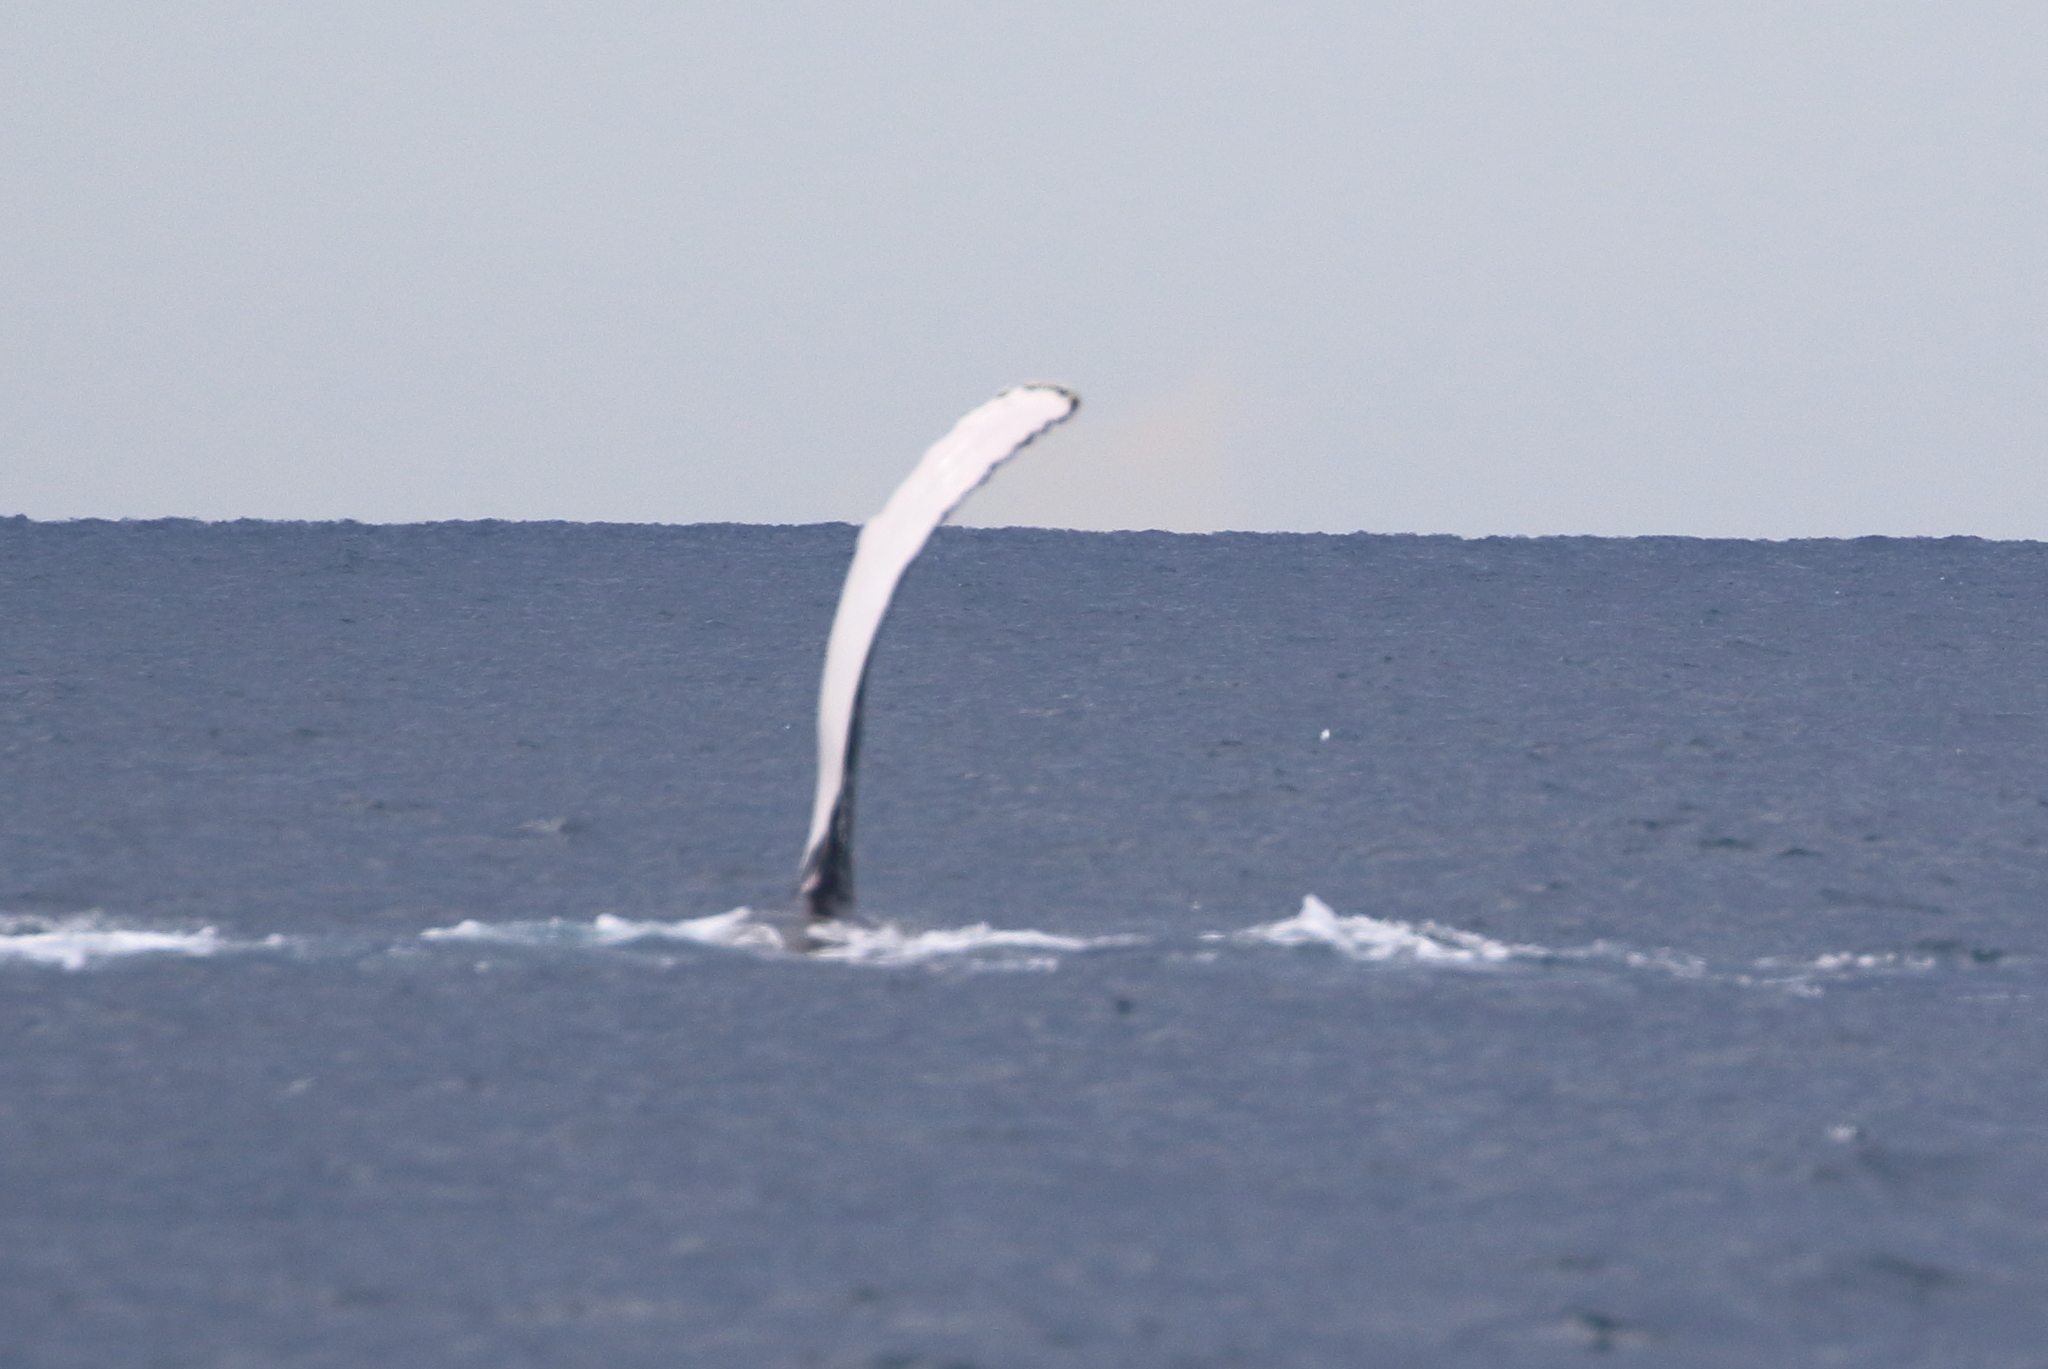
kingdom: Animalia
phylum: Chordata
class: Mammalia
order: Cetacea
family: Balaenopteridae
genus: Megaptera
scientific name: Megaptera novaeangliae
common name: Humpback whale
